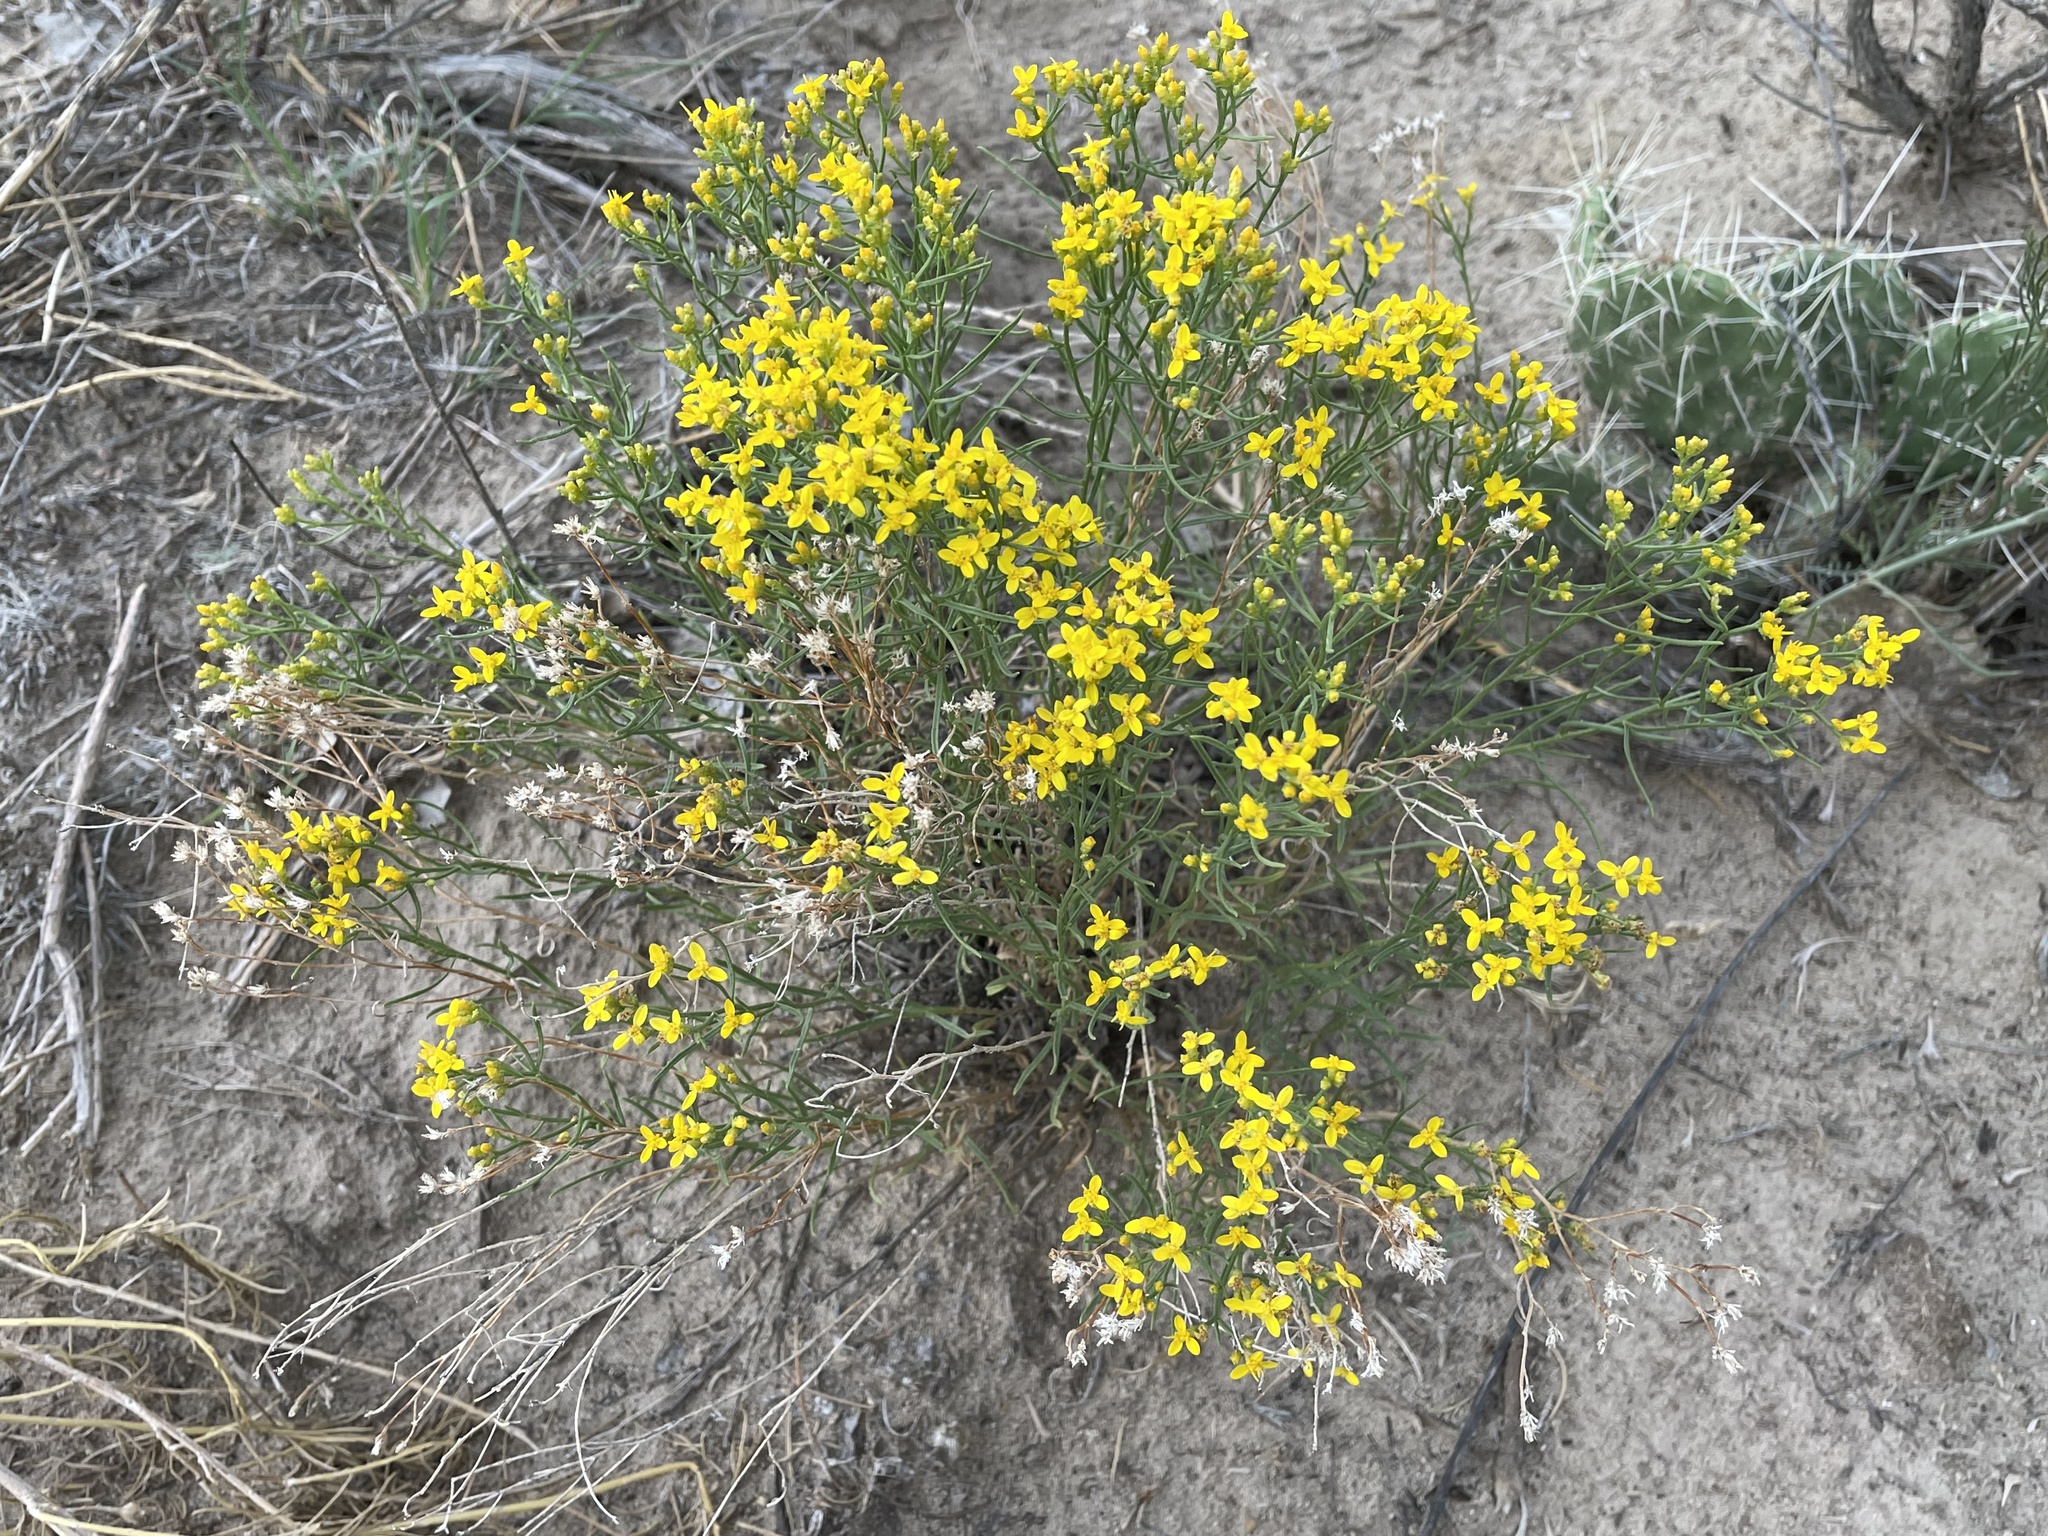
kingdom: Plantae
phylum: Tracheophyta
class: Magnoliopsida
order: Asterales
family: Asteraceae
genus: Gutierrezia
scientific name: Gutierrezia sarothrae
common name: Broom snakeweed
